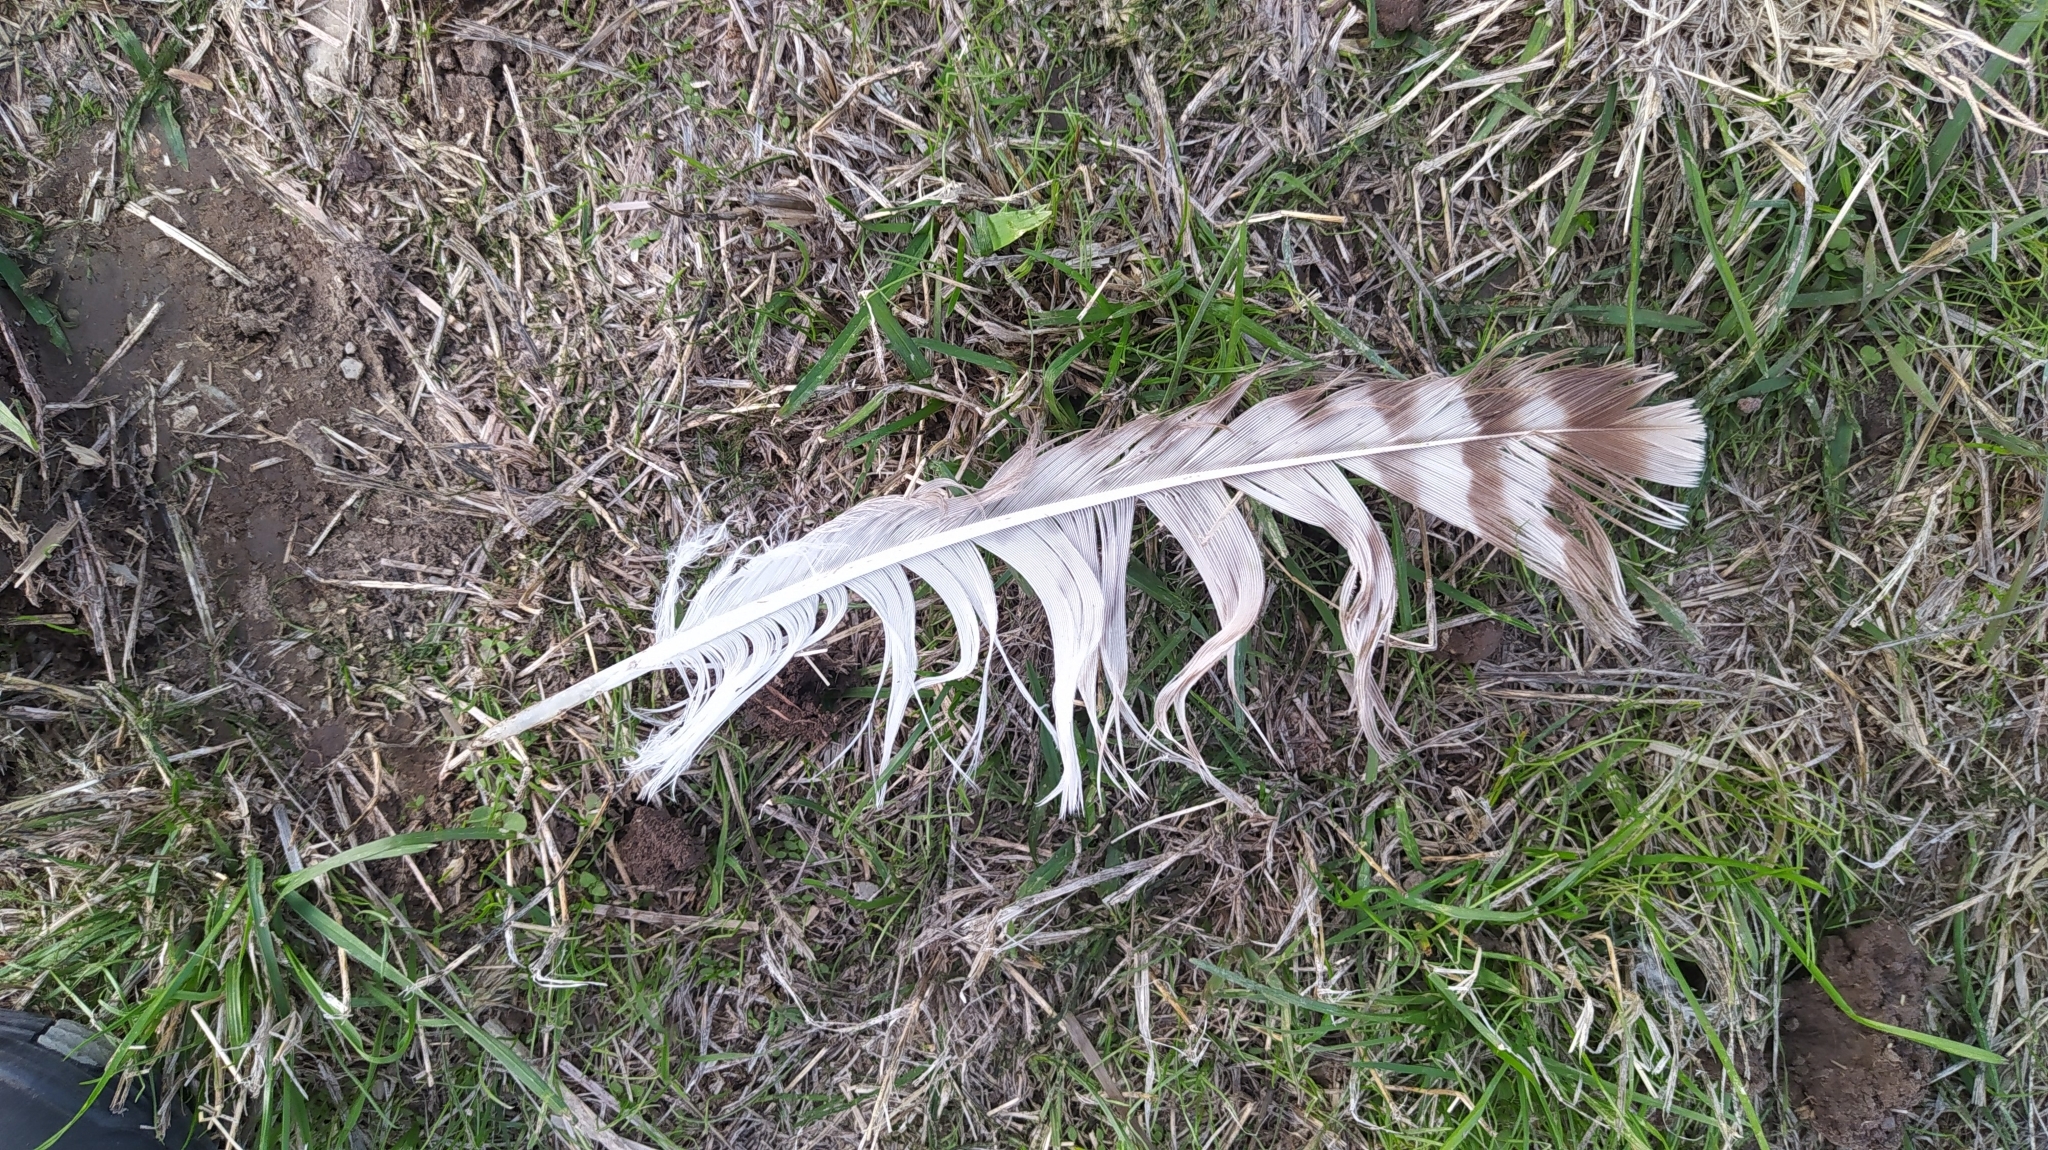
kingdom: Animalia
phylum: Chordata
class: Aves
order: Accipitriformes
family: Accipitridae
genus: Buteo
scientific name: Buteo buteo
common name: Common buzzard
